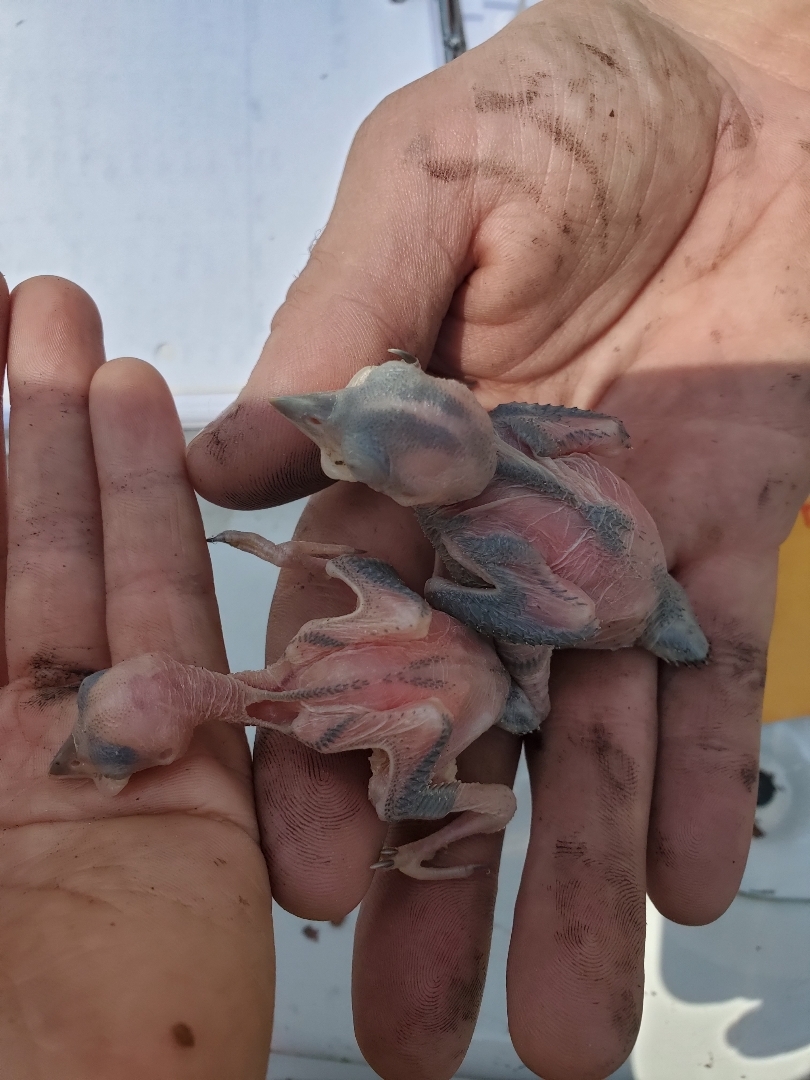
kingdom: Animalia
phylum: Chordata
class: Aves
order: Piciformes
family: Picidae
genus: Leuconotopicus
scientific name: Leuconotopicus borealis
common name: Red-cockaded woodpecker
